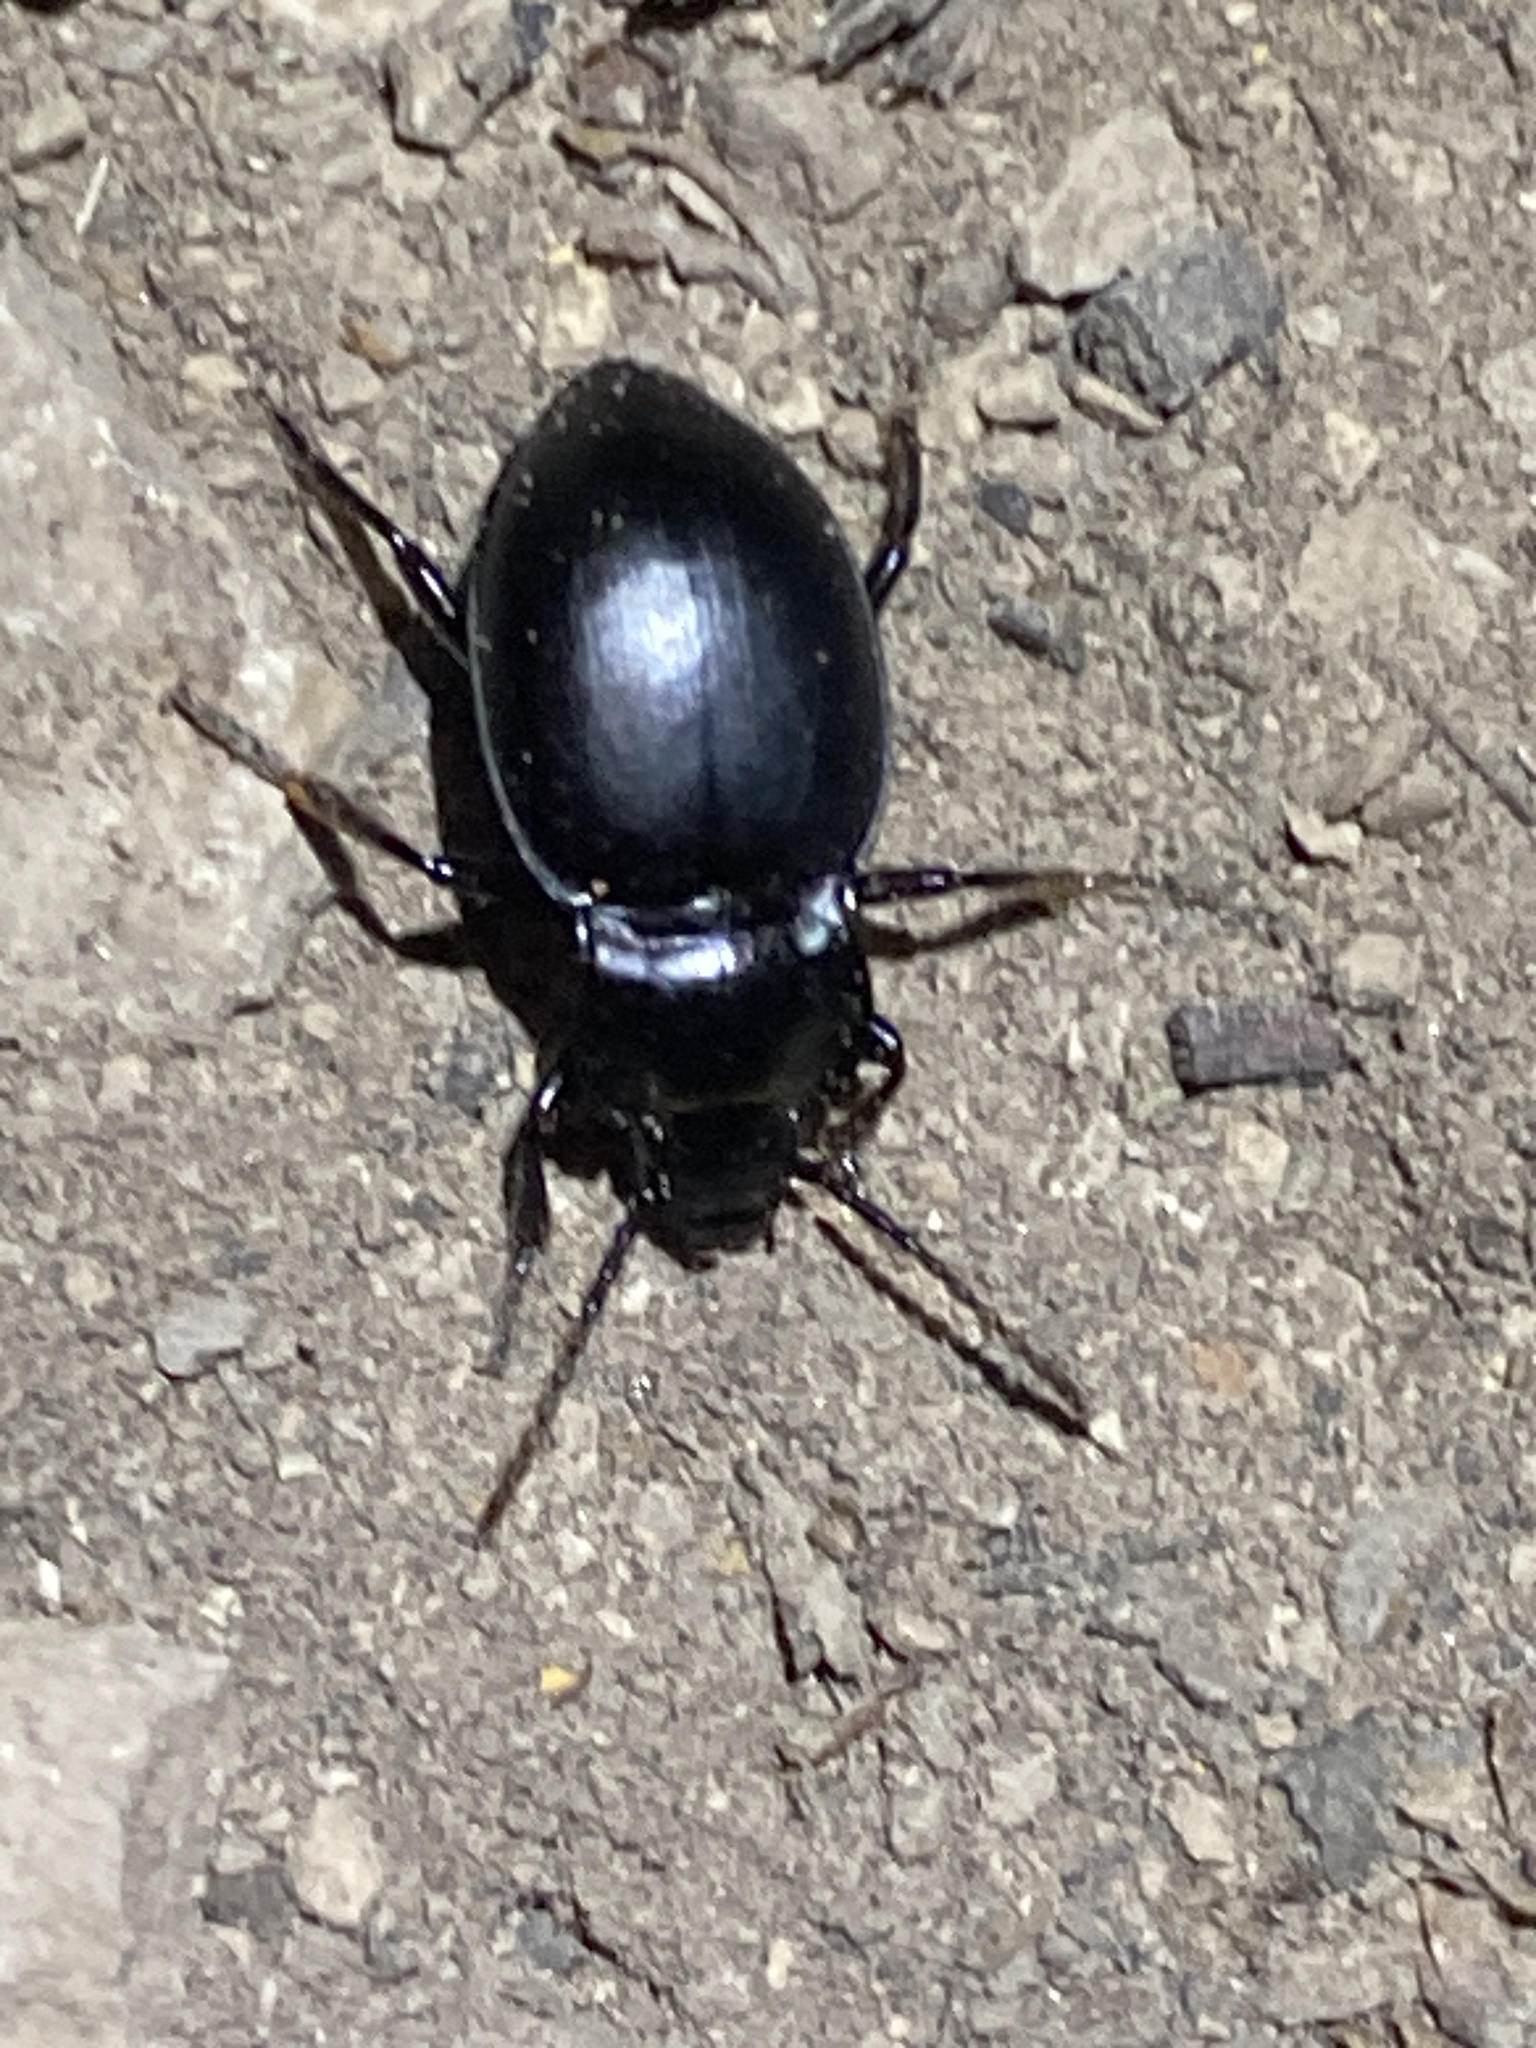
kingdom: Animalia
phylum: Arthropoda
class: Insecta
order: Coleoptera
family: Carabidae
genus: Metrius
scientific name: Metrius contractus
